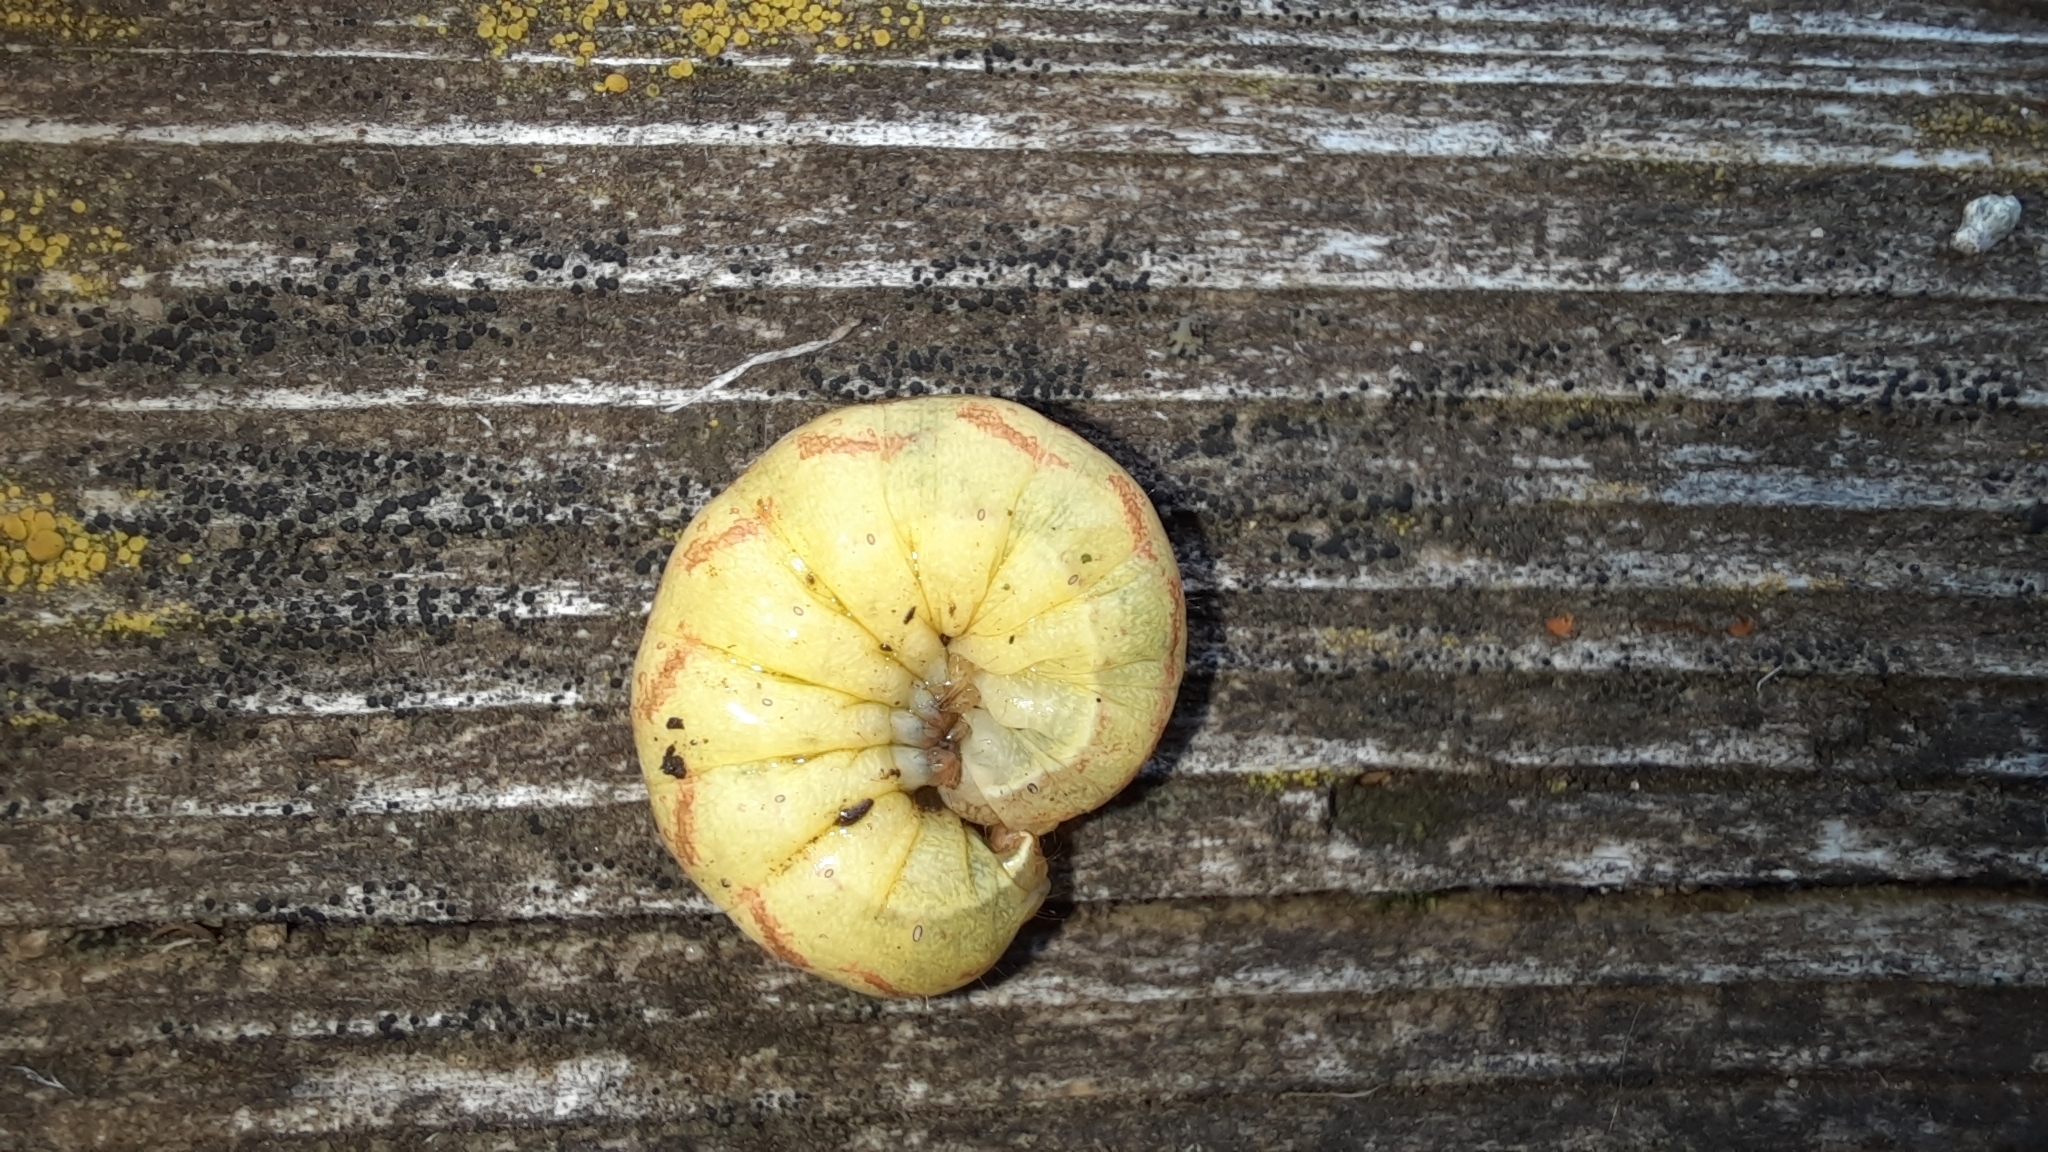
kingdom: Animalia
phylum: Arthropoda
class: Insecta
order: Lepidoptera
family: Noctuidae
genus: Lacanobia
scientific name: Lacanobia contigua
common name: Beautiful brocade
